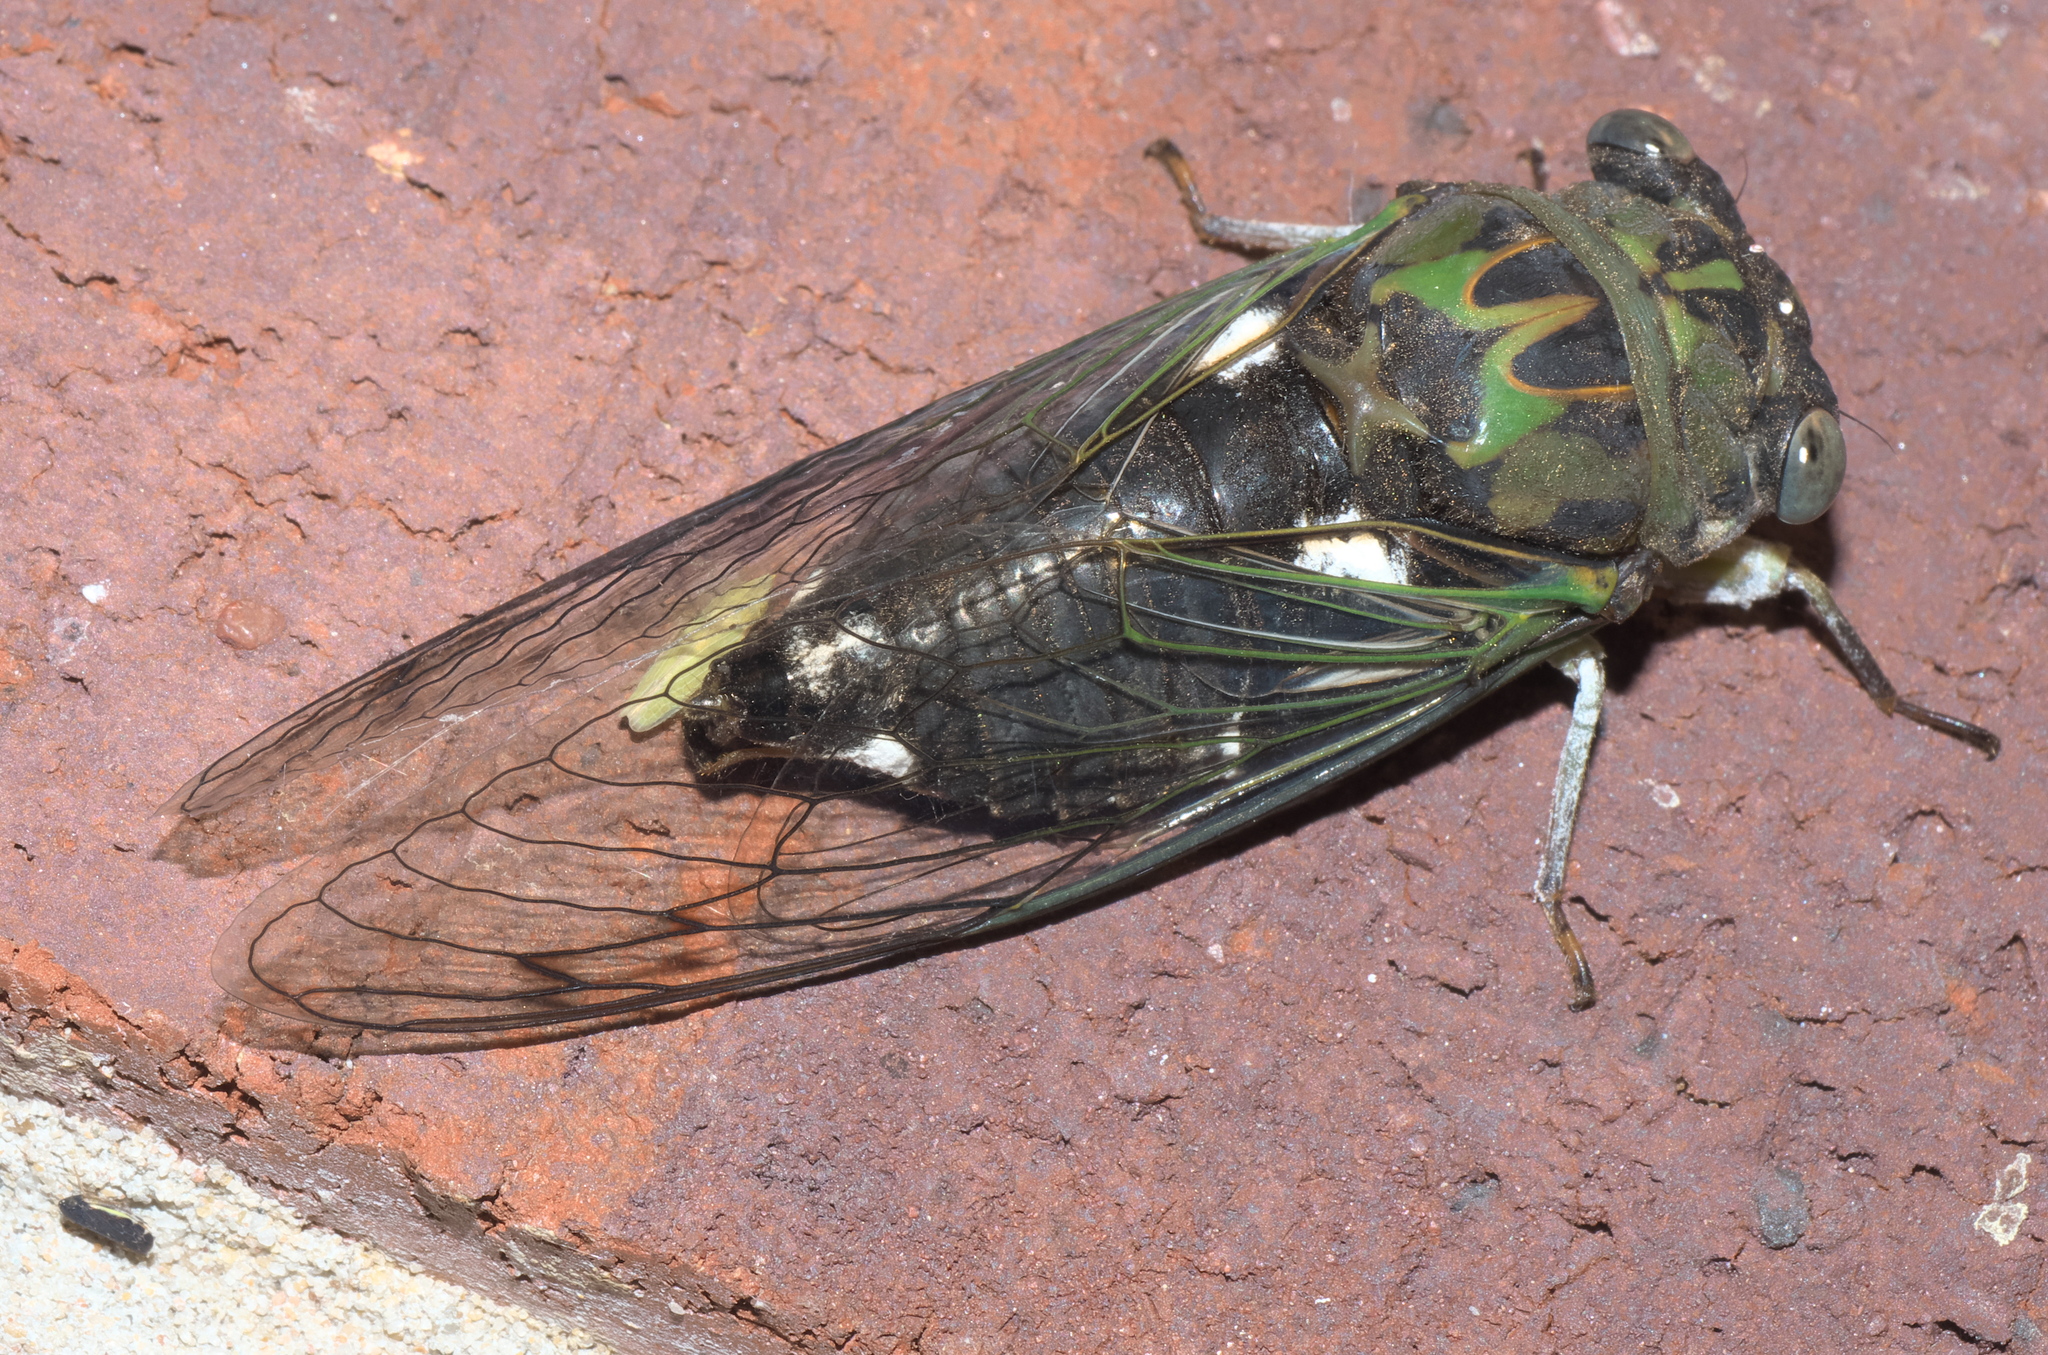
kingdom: Animalia
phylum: Arthropoda
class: Insecta
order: Hemiptera
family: Cicadidae
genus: Neotibicen
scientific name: Neotibicen pruinosus
